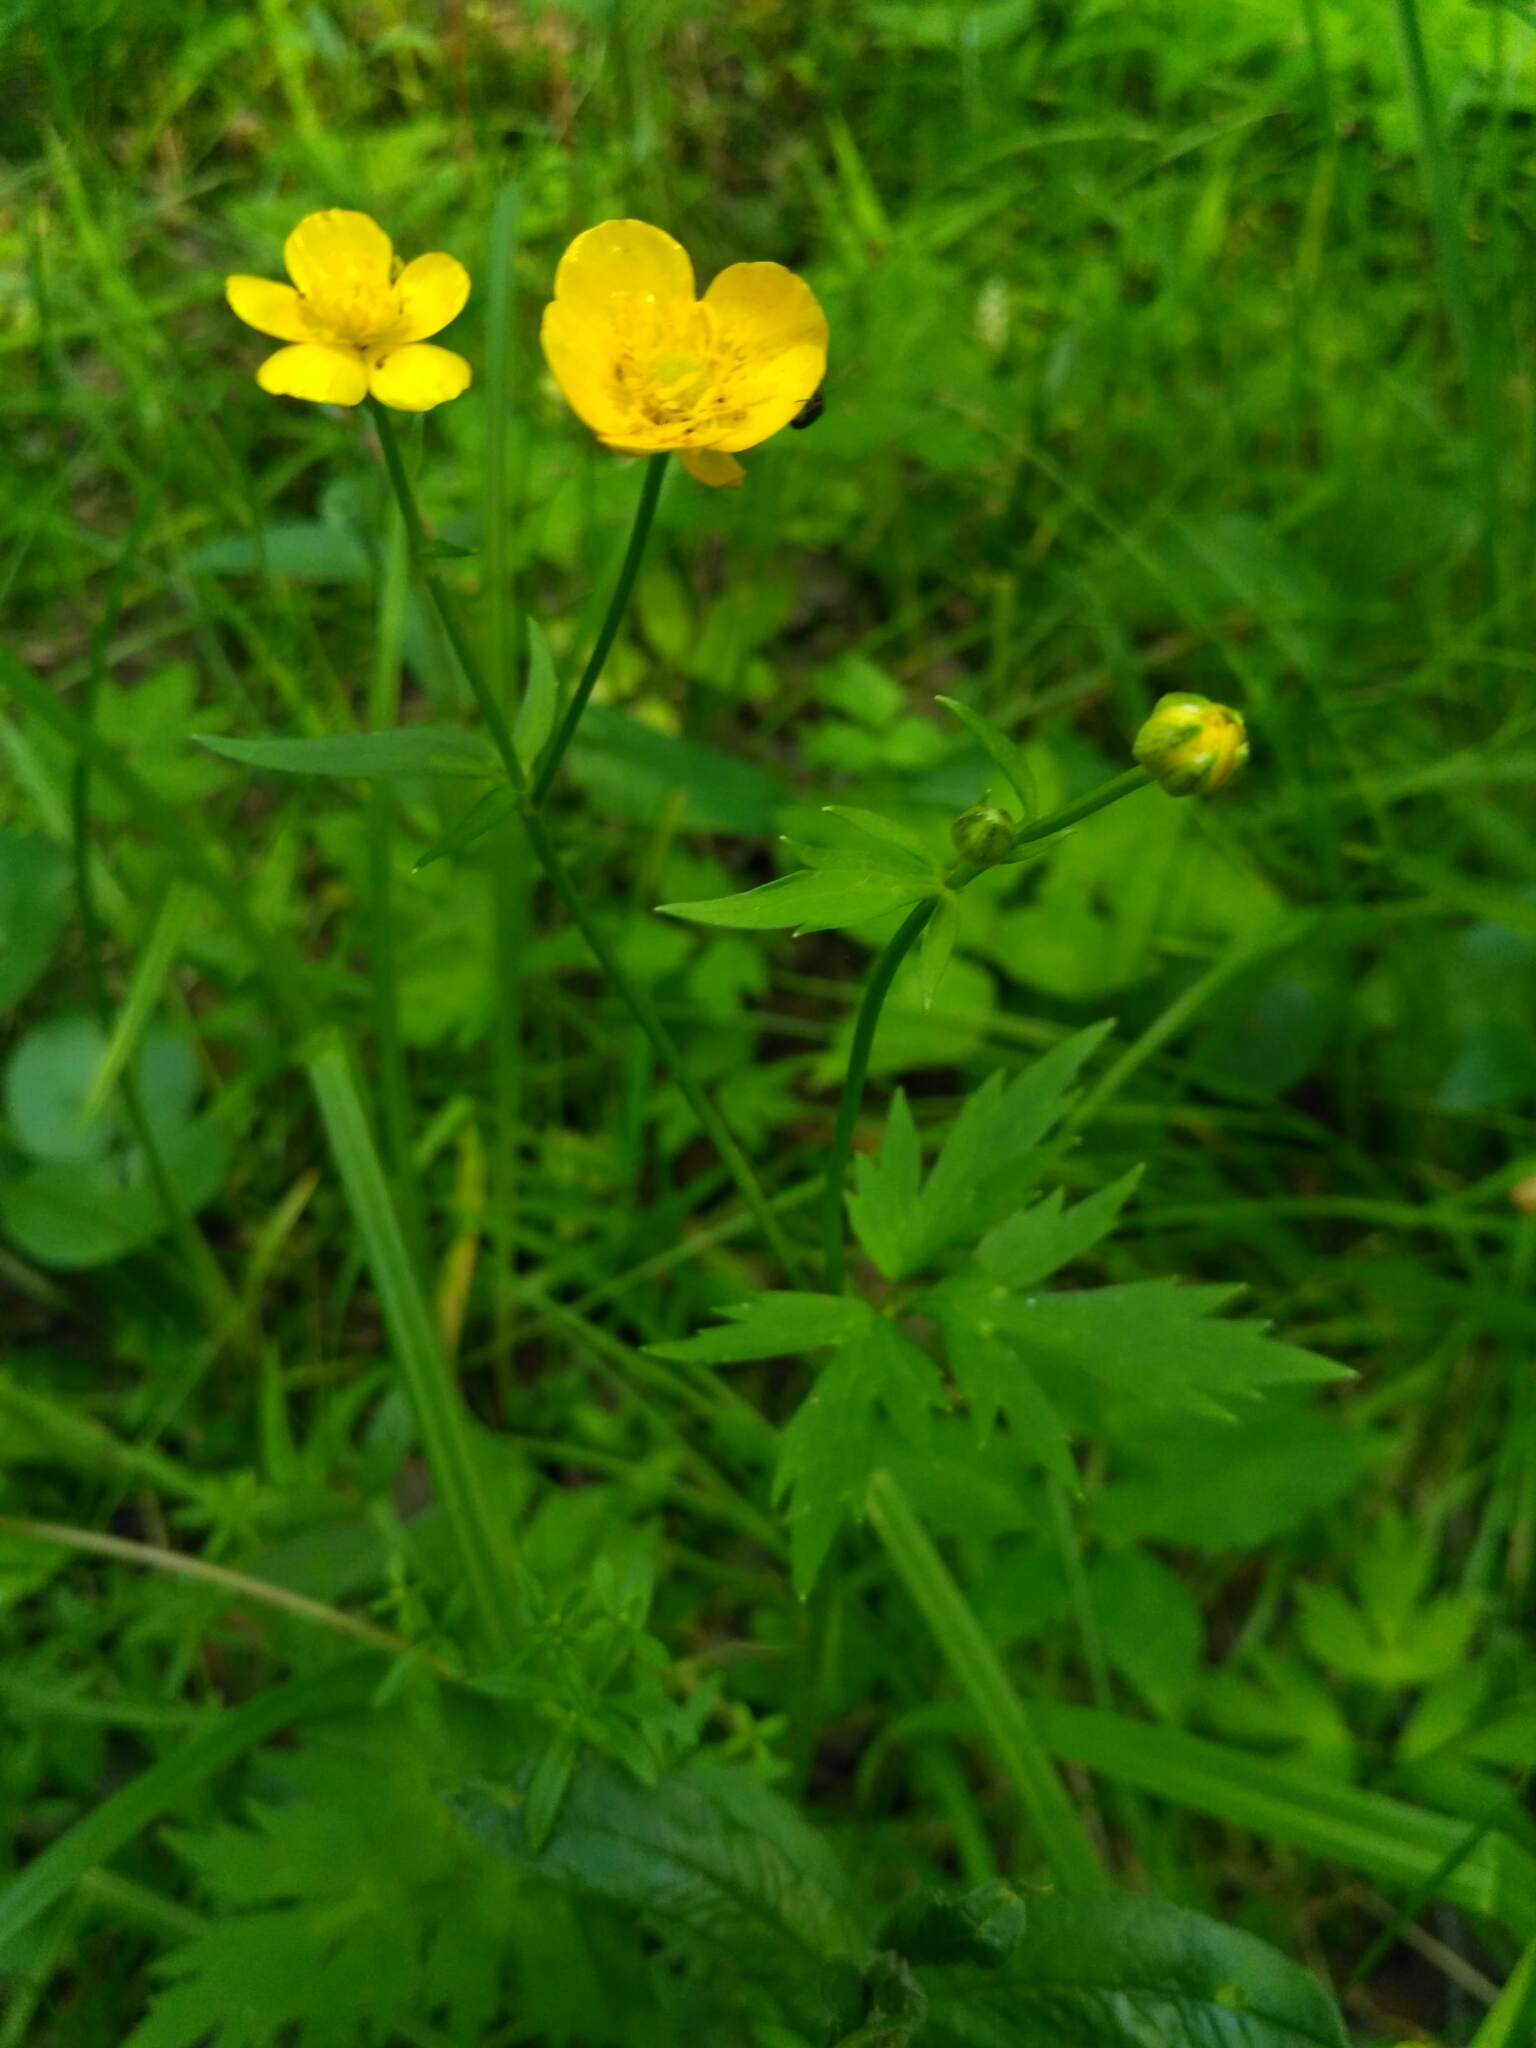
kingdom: Plantae
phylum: Tracheophyta
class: Magnoliopsida
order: Ranunculales
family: Ranunculaceae
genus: Ranunculus
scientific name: Ranunculus repens
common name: Creeping buttercup
